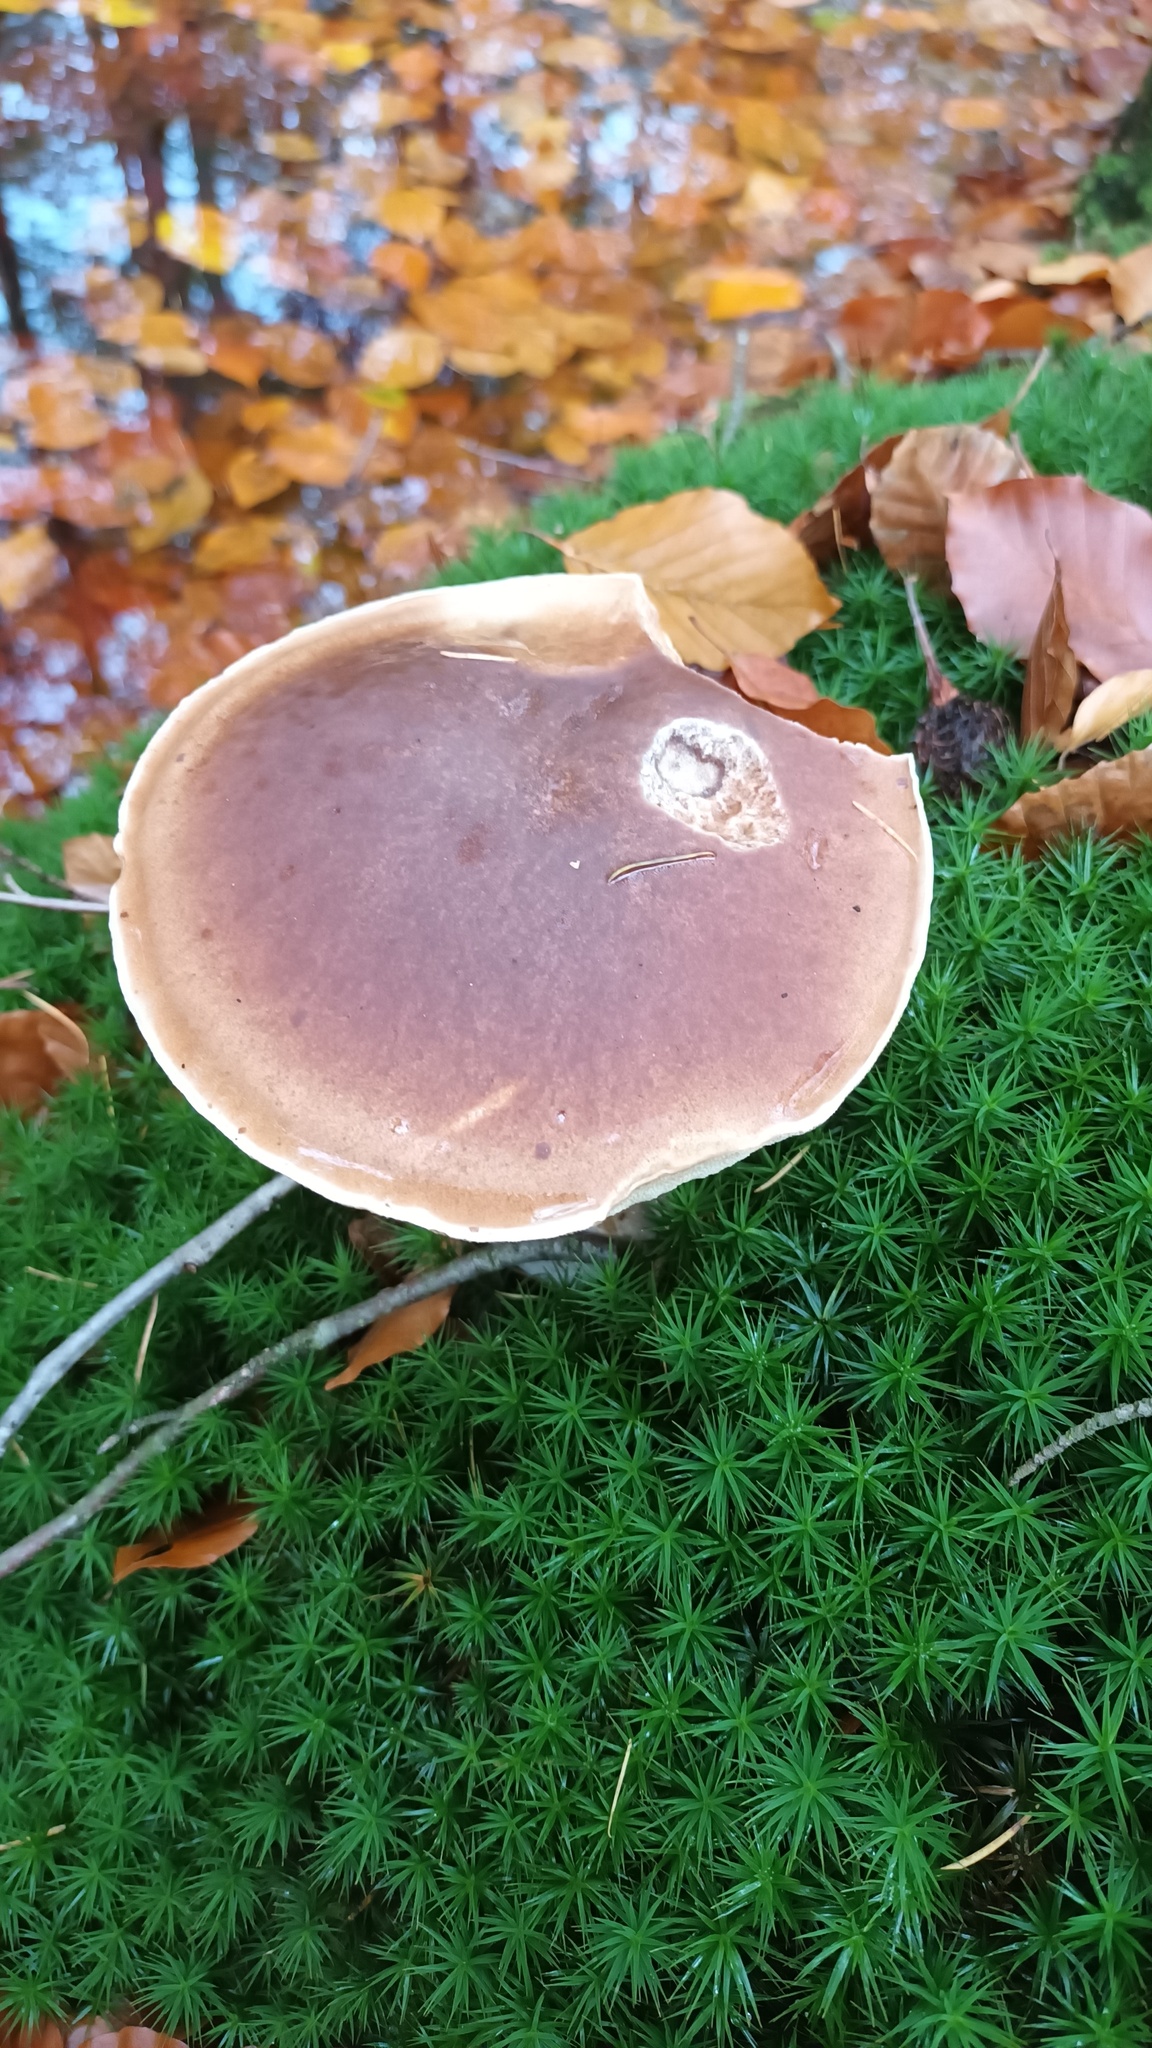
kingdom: Fungi
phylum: Basidiomycota
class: Agaricomycetes
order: Boletales
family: Boletaceae
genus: Boletus
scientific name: Boletus edulis
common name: Cep
